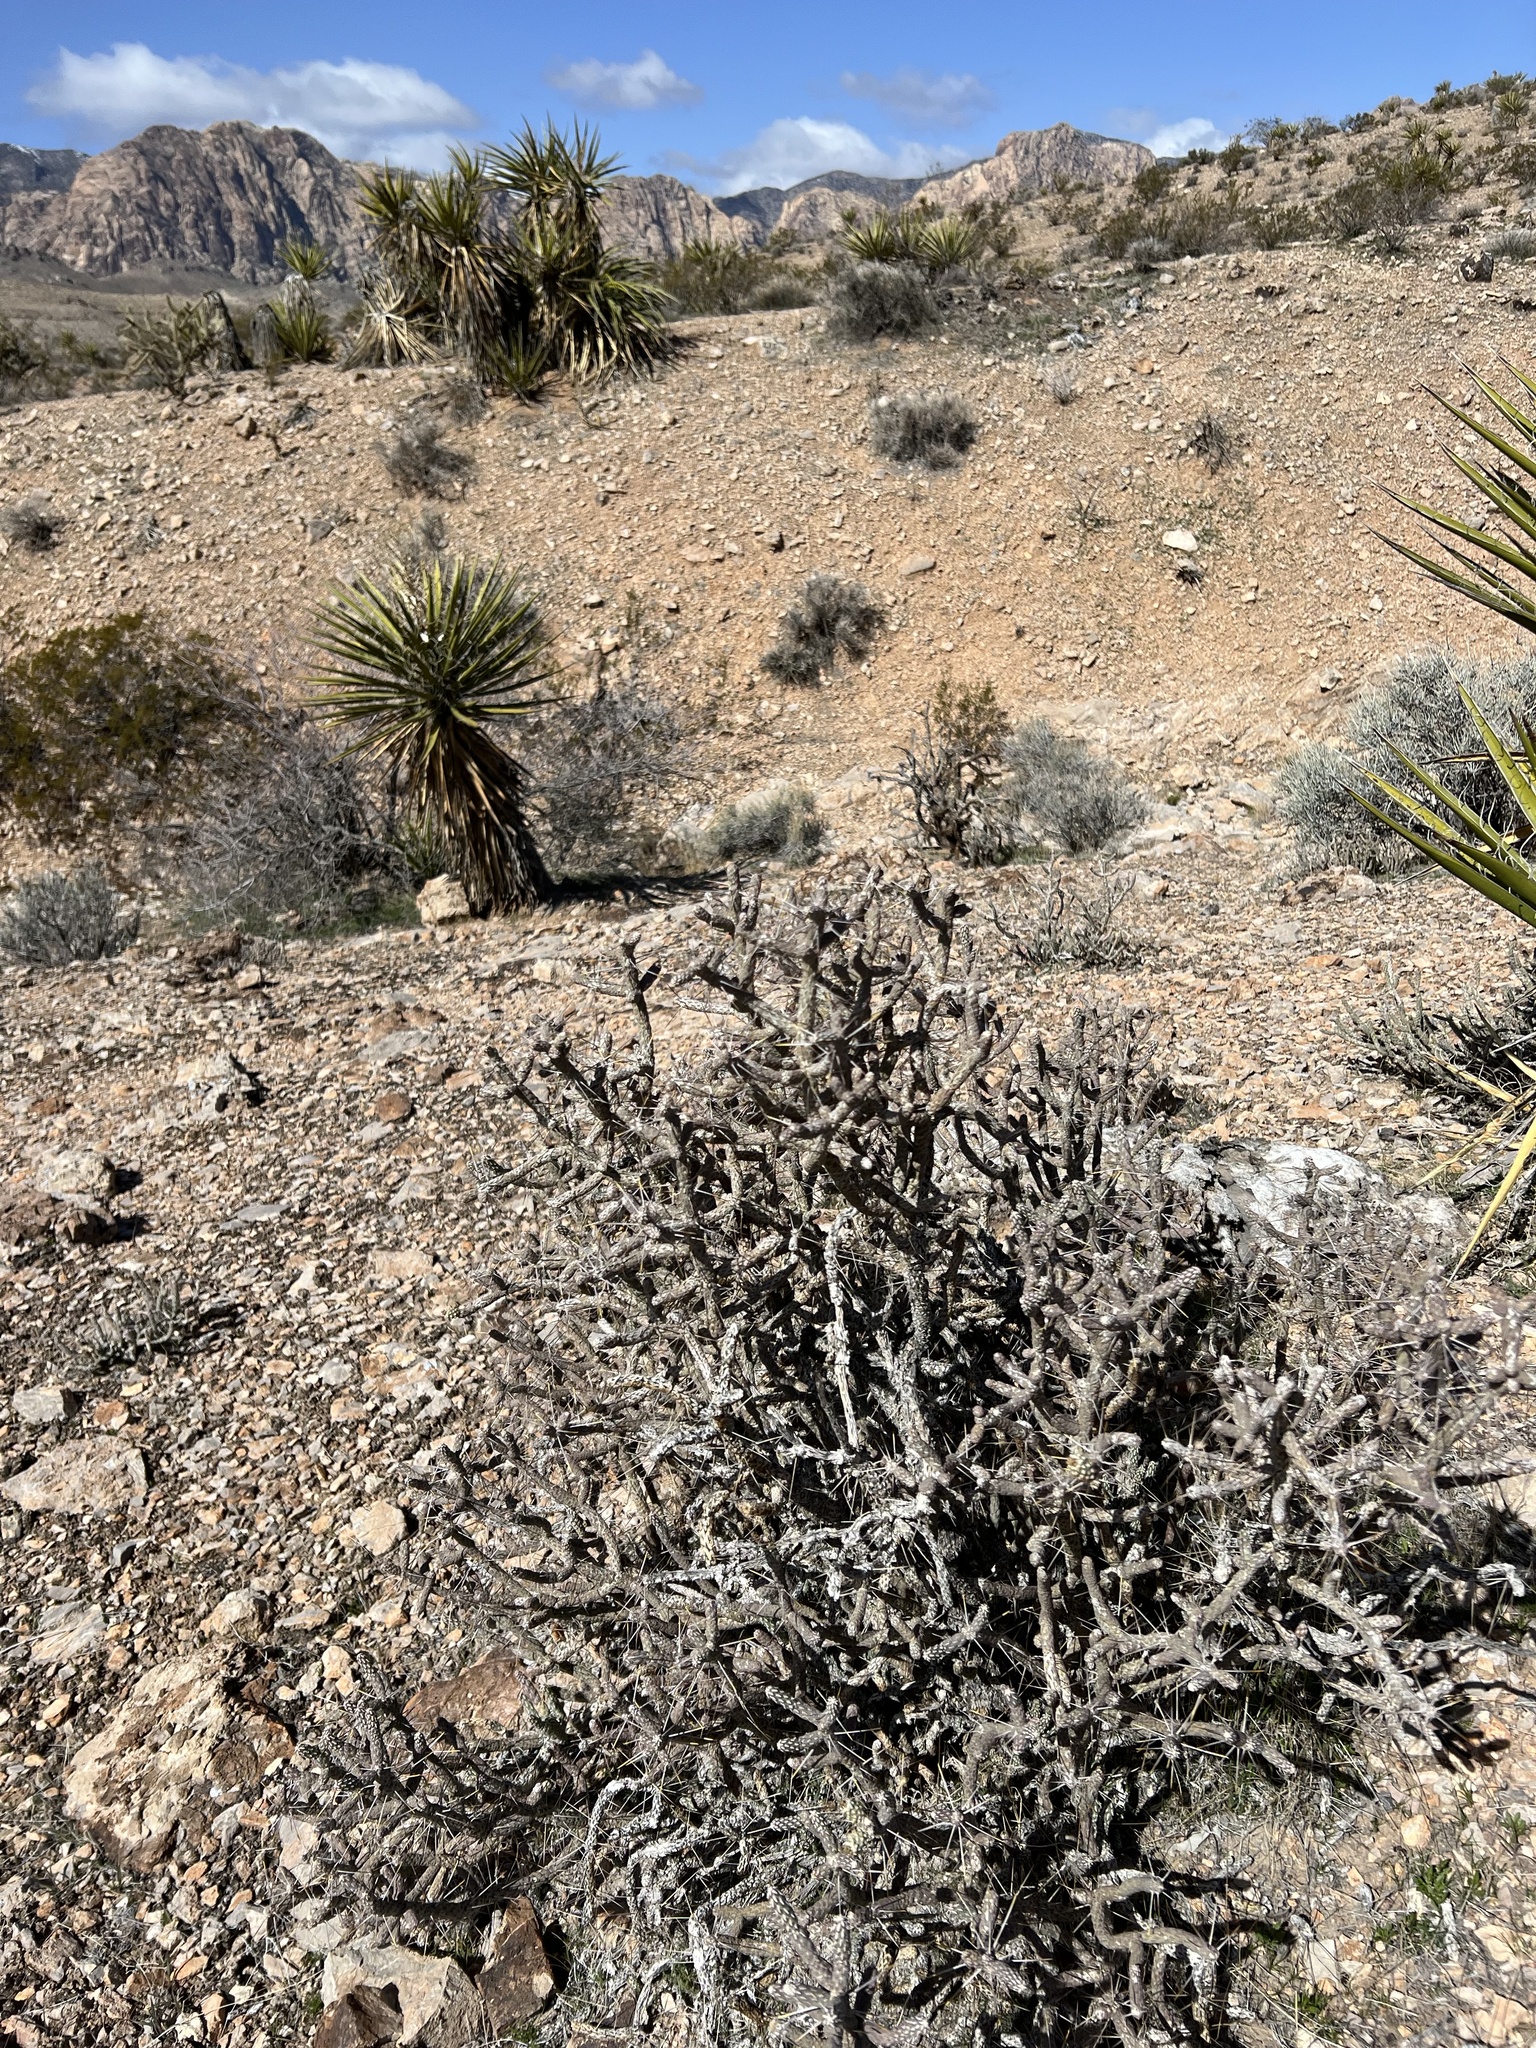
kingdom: Plantae
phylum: Tracheophyta
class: Magnoliopsida
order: Caryophyllales
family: Cactaceae
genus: Cylindropuntia
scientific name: Cylindropuntia ramosissima
